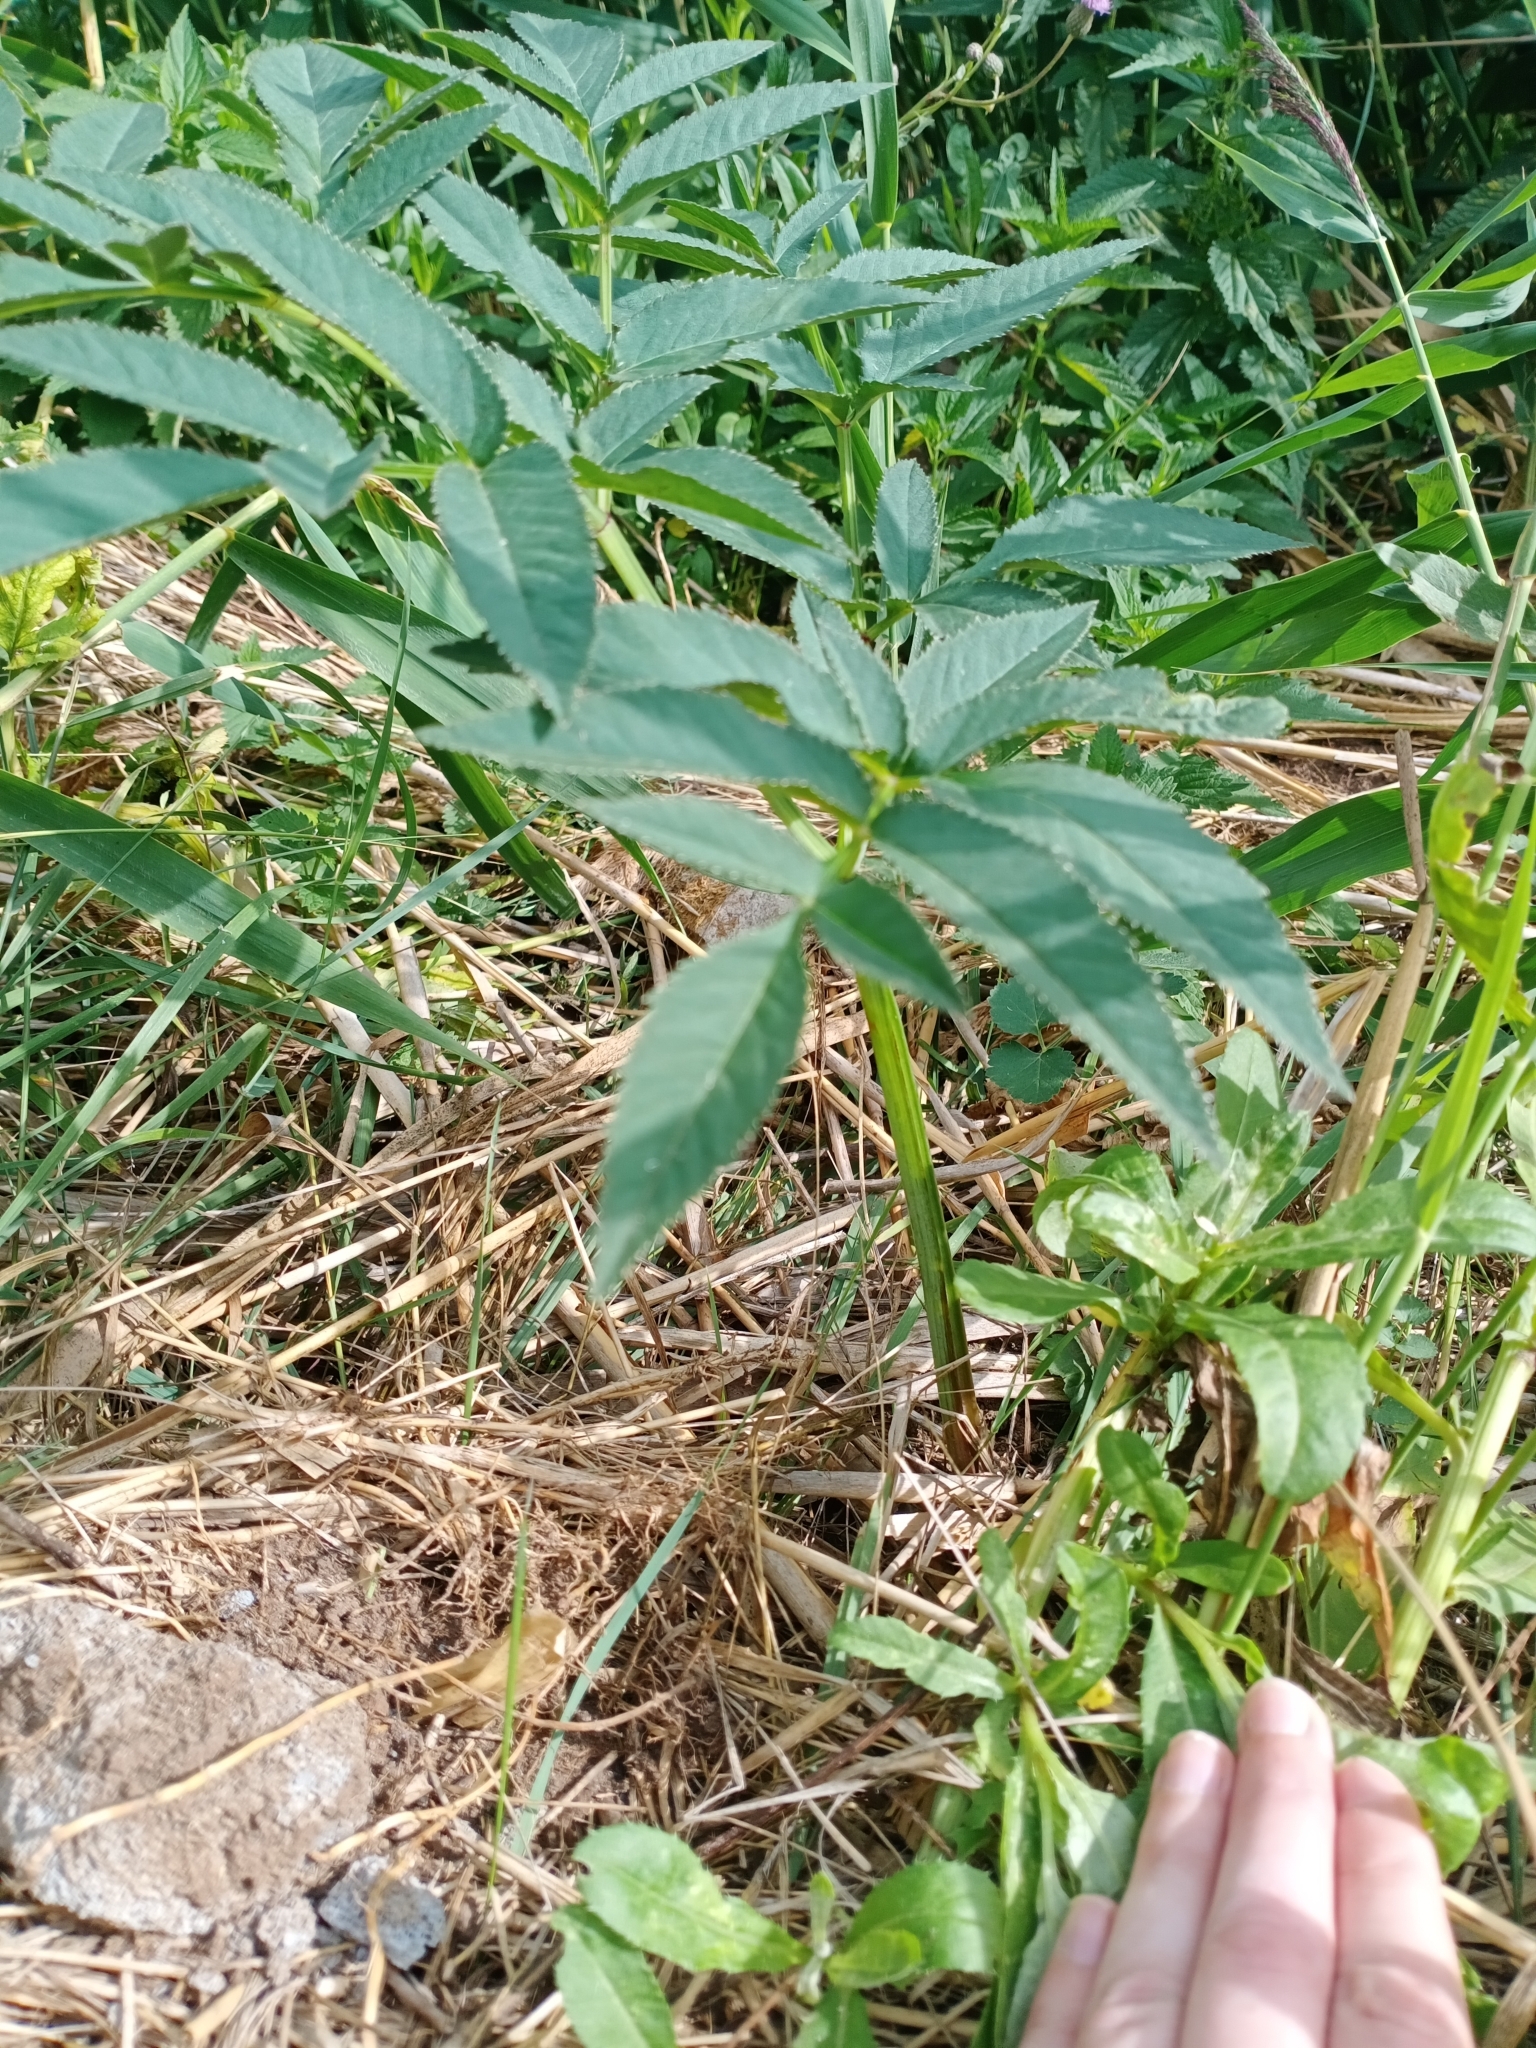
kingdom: Plantae
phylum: Tracheophyta
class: Magnoliopsida
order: Apiales
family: Apiaceae
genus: Angelica
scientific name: Angelica sylvestris
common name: Wild angelica
